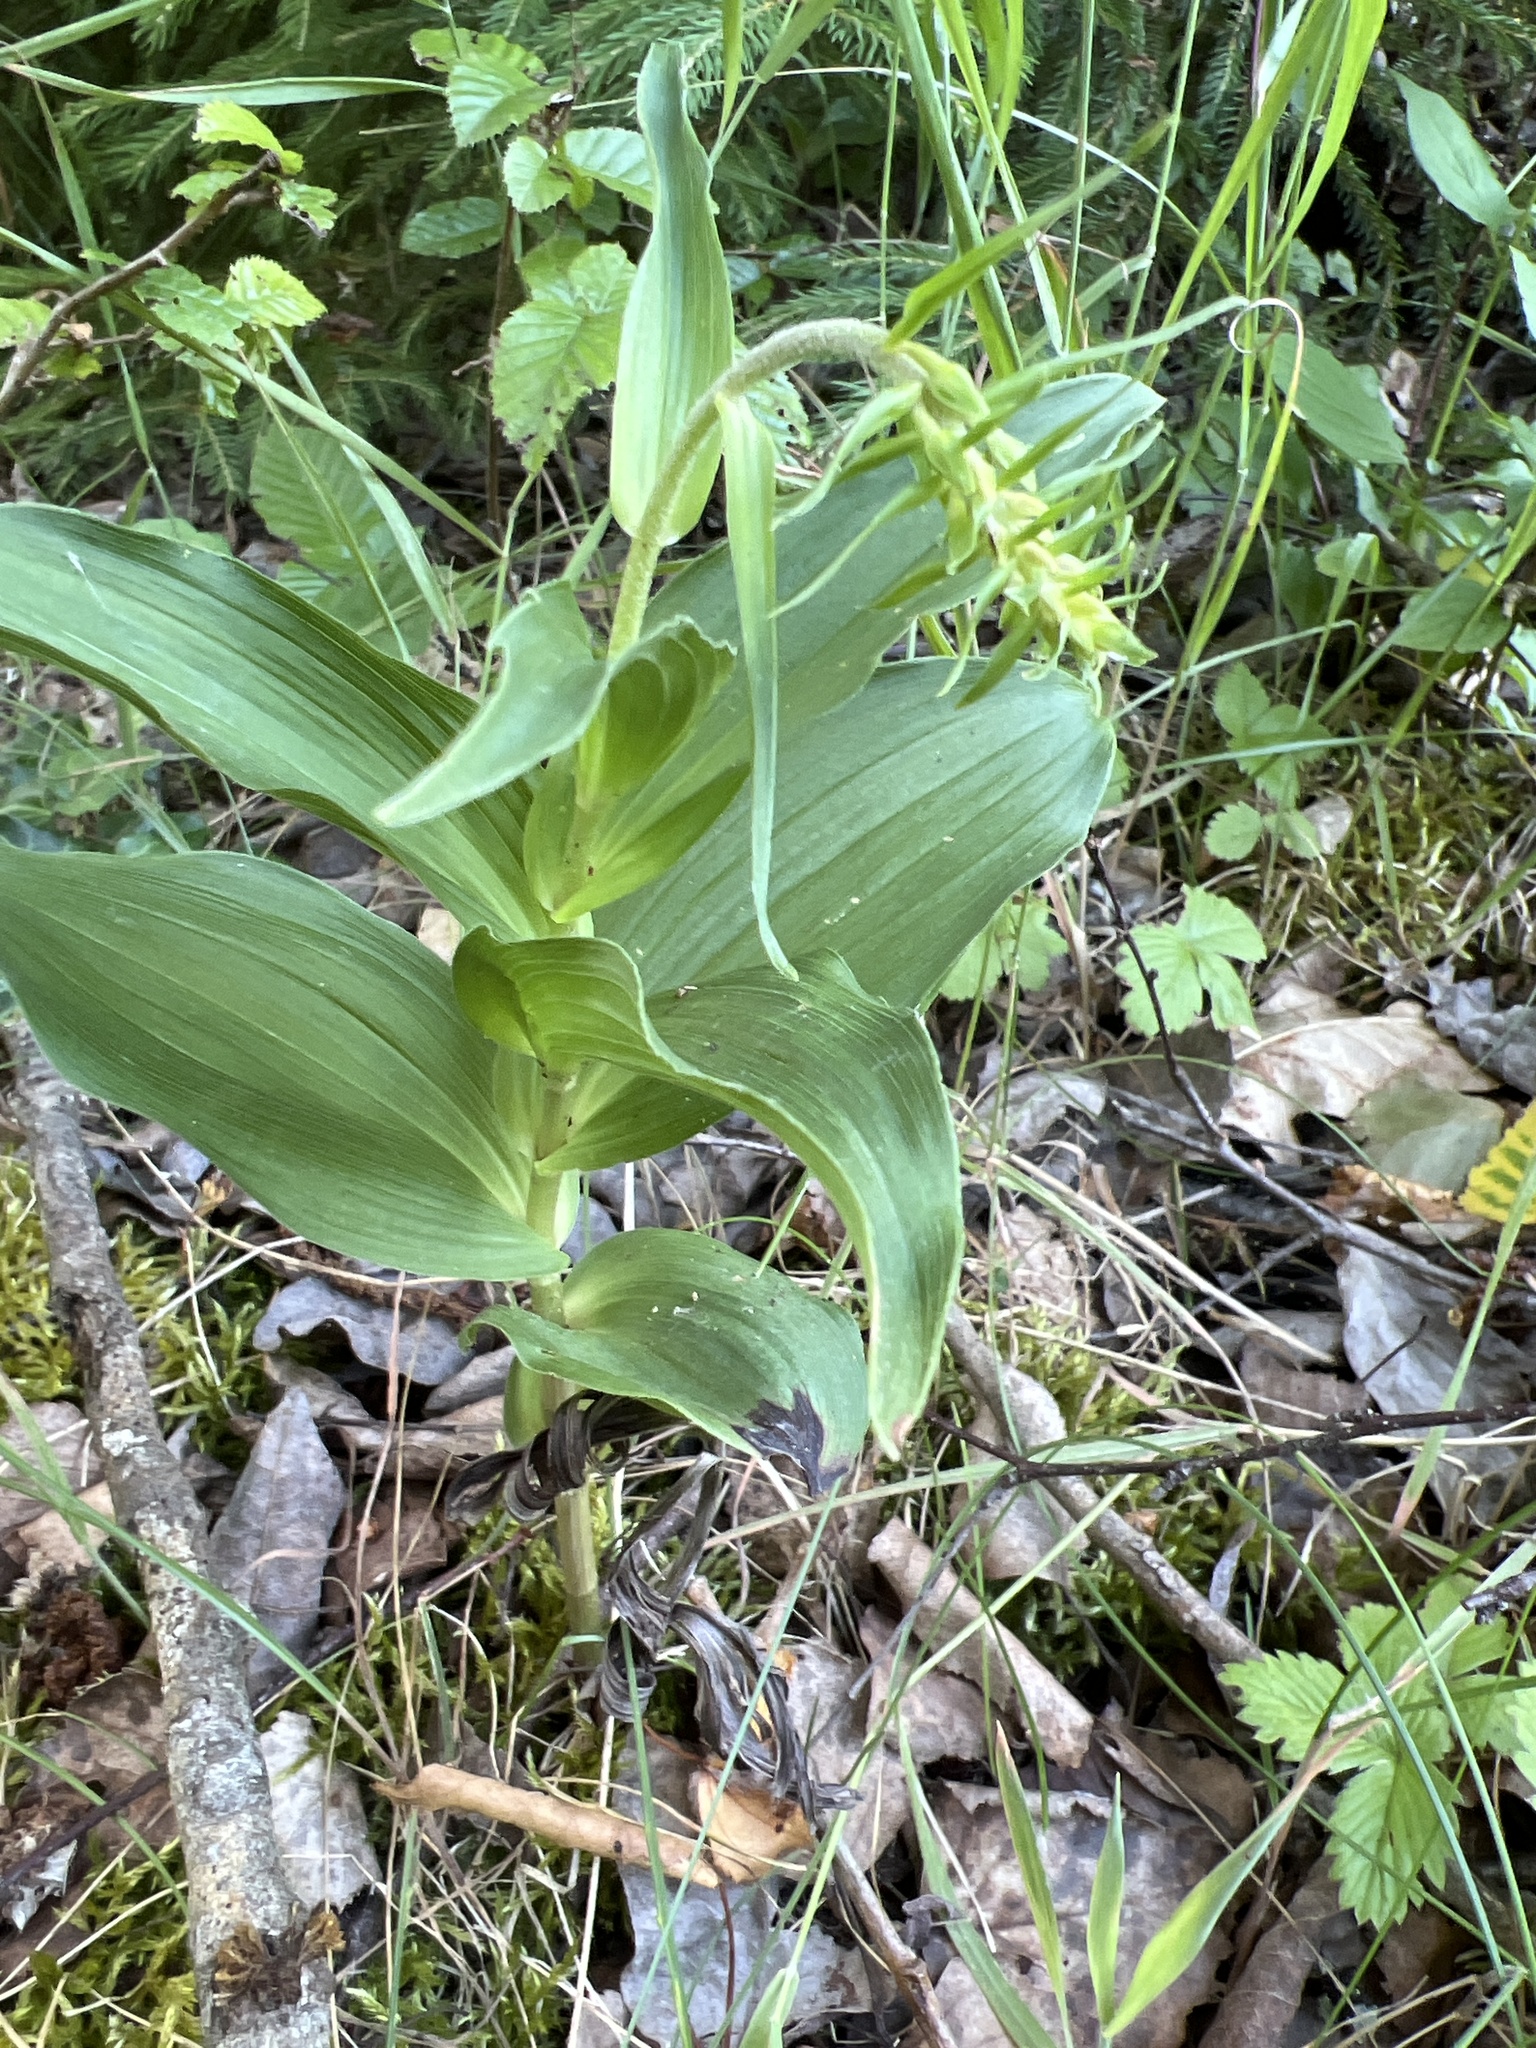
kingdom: Plantae
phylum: Tracheophyta
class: Liliopsida
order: Asparagales
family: Orchidaceae
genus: Epipactis
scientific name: Epipactis helleborine
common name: Broad-leaved helleborine
